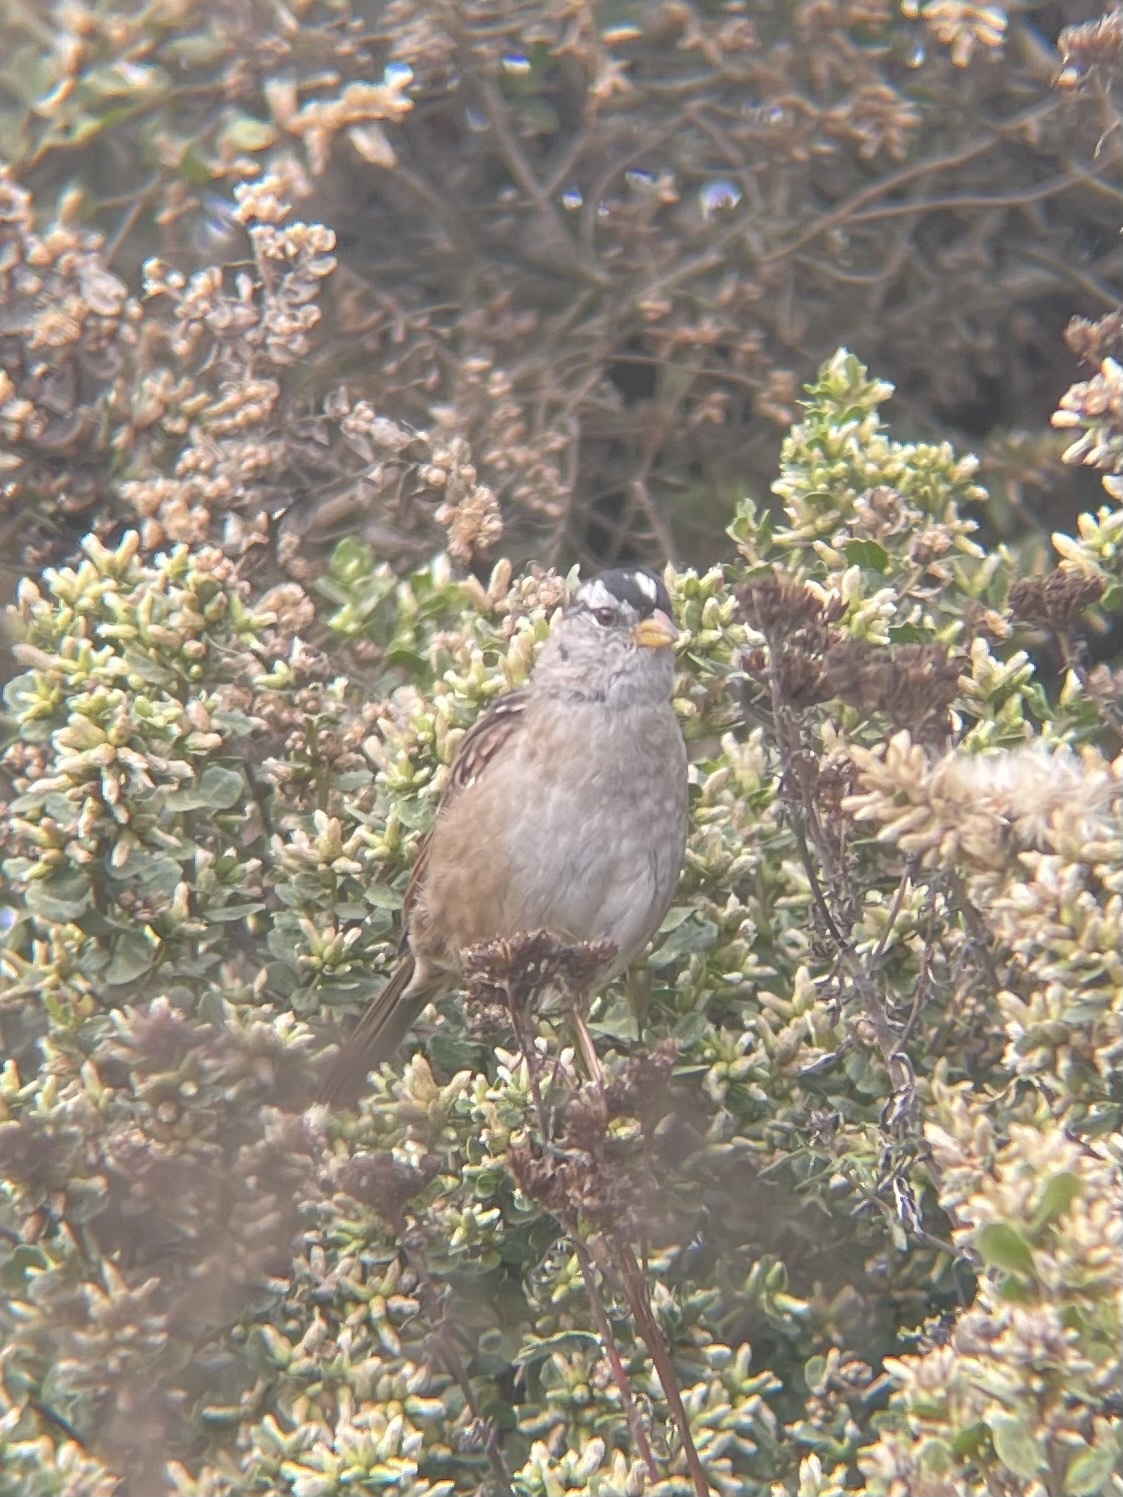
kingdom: Animalia
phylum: Chordata
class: Aves
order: Passeriformes
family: Passerellidae
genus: Zonotrichia
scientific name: Zonotrichia leucophrys
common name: White-crowned sparrow
